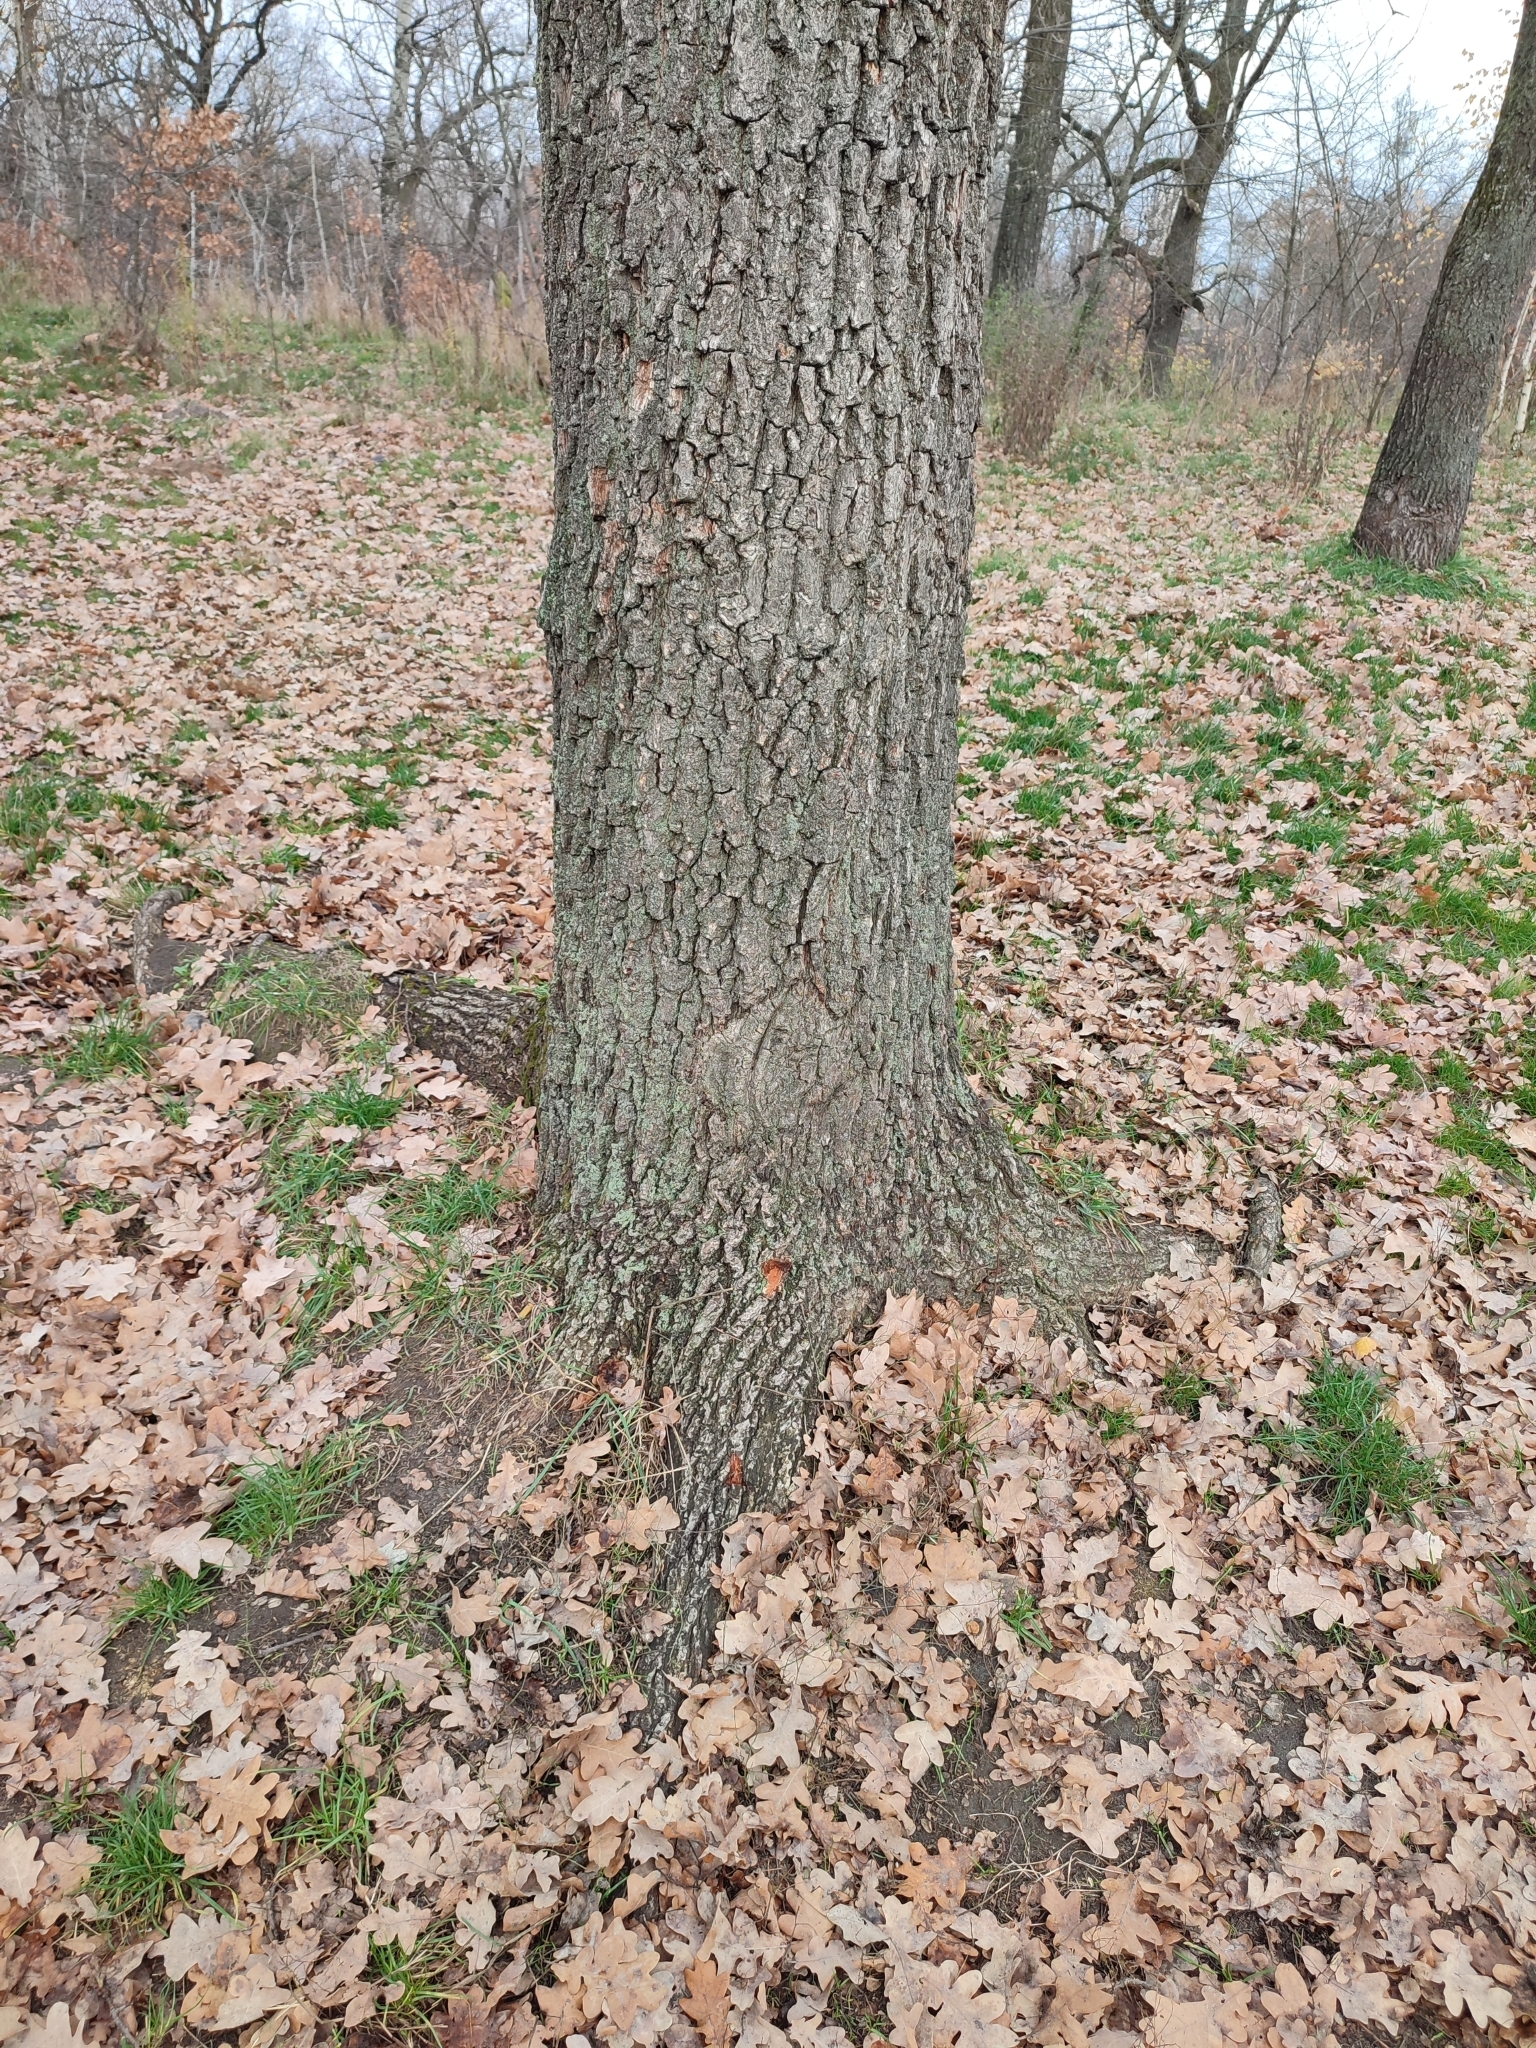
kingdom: Plantae
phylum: Tracheophyta
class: Magnoliopsida
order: Fagales
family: Fagaceae
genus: Quercus
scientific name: Quercus robur
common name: Pedunculate oak
